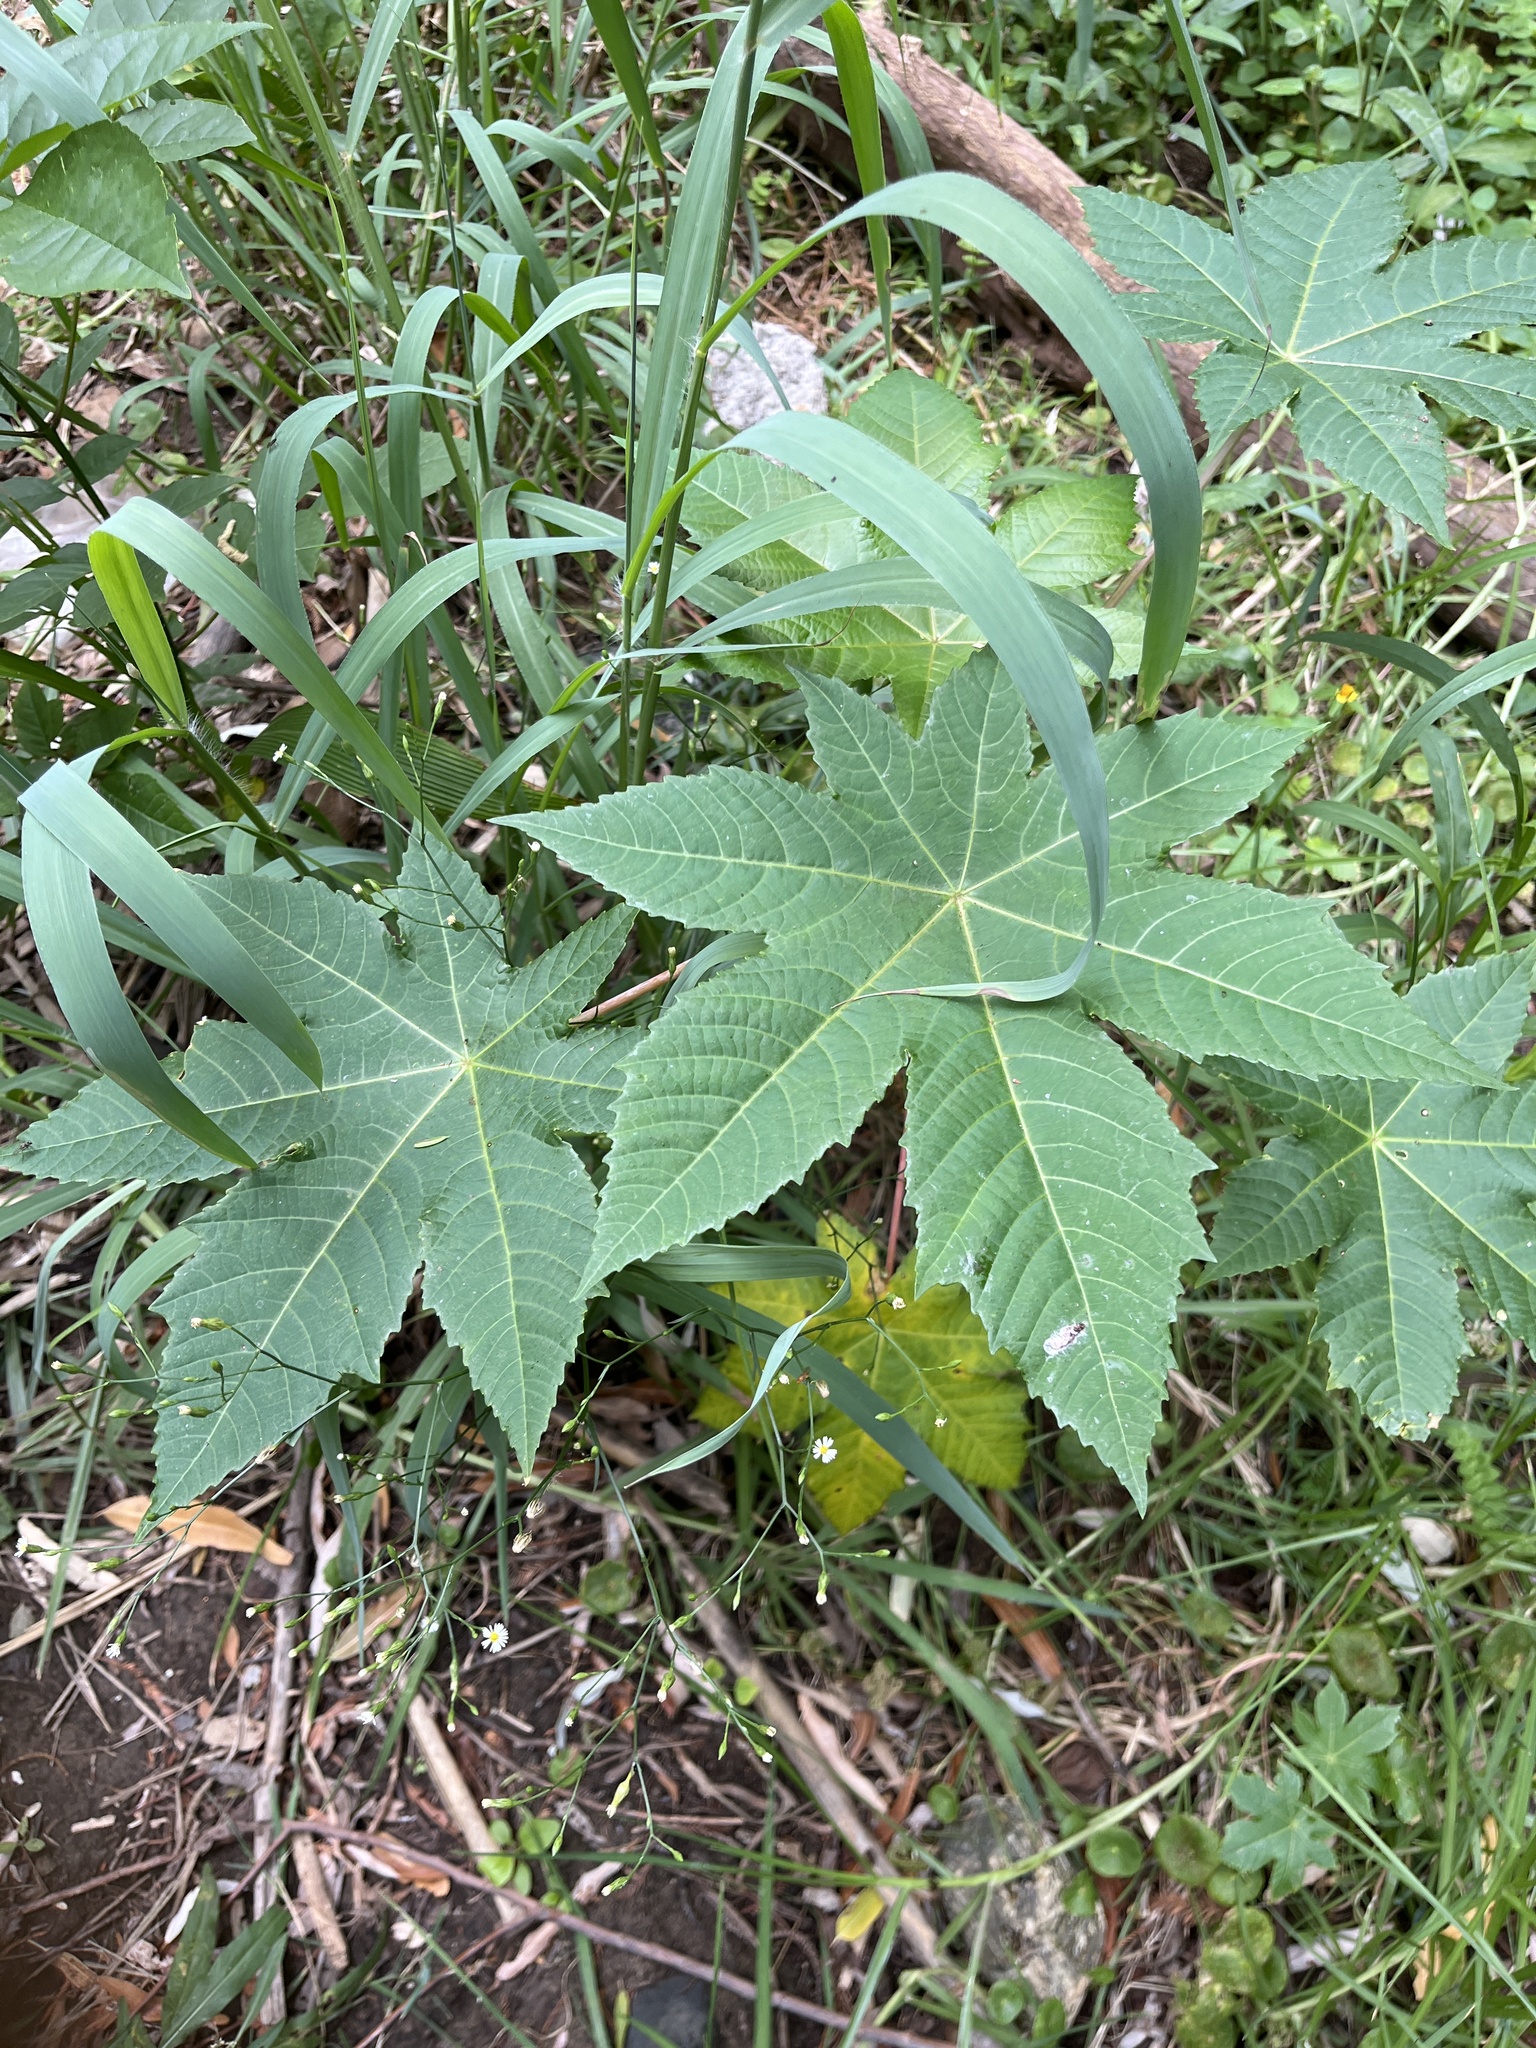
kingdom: Plantae
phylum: Tracheophyta
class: Magnoliopsida
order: Malpighiales
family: Euphorbiaceae
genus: Ricinus
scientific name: Ricinus communis
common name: Castor-oil-plant
